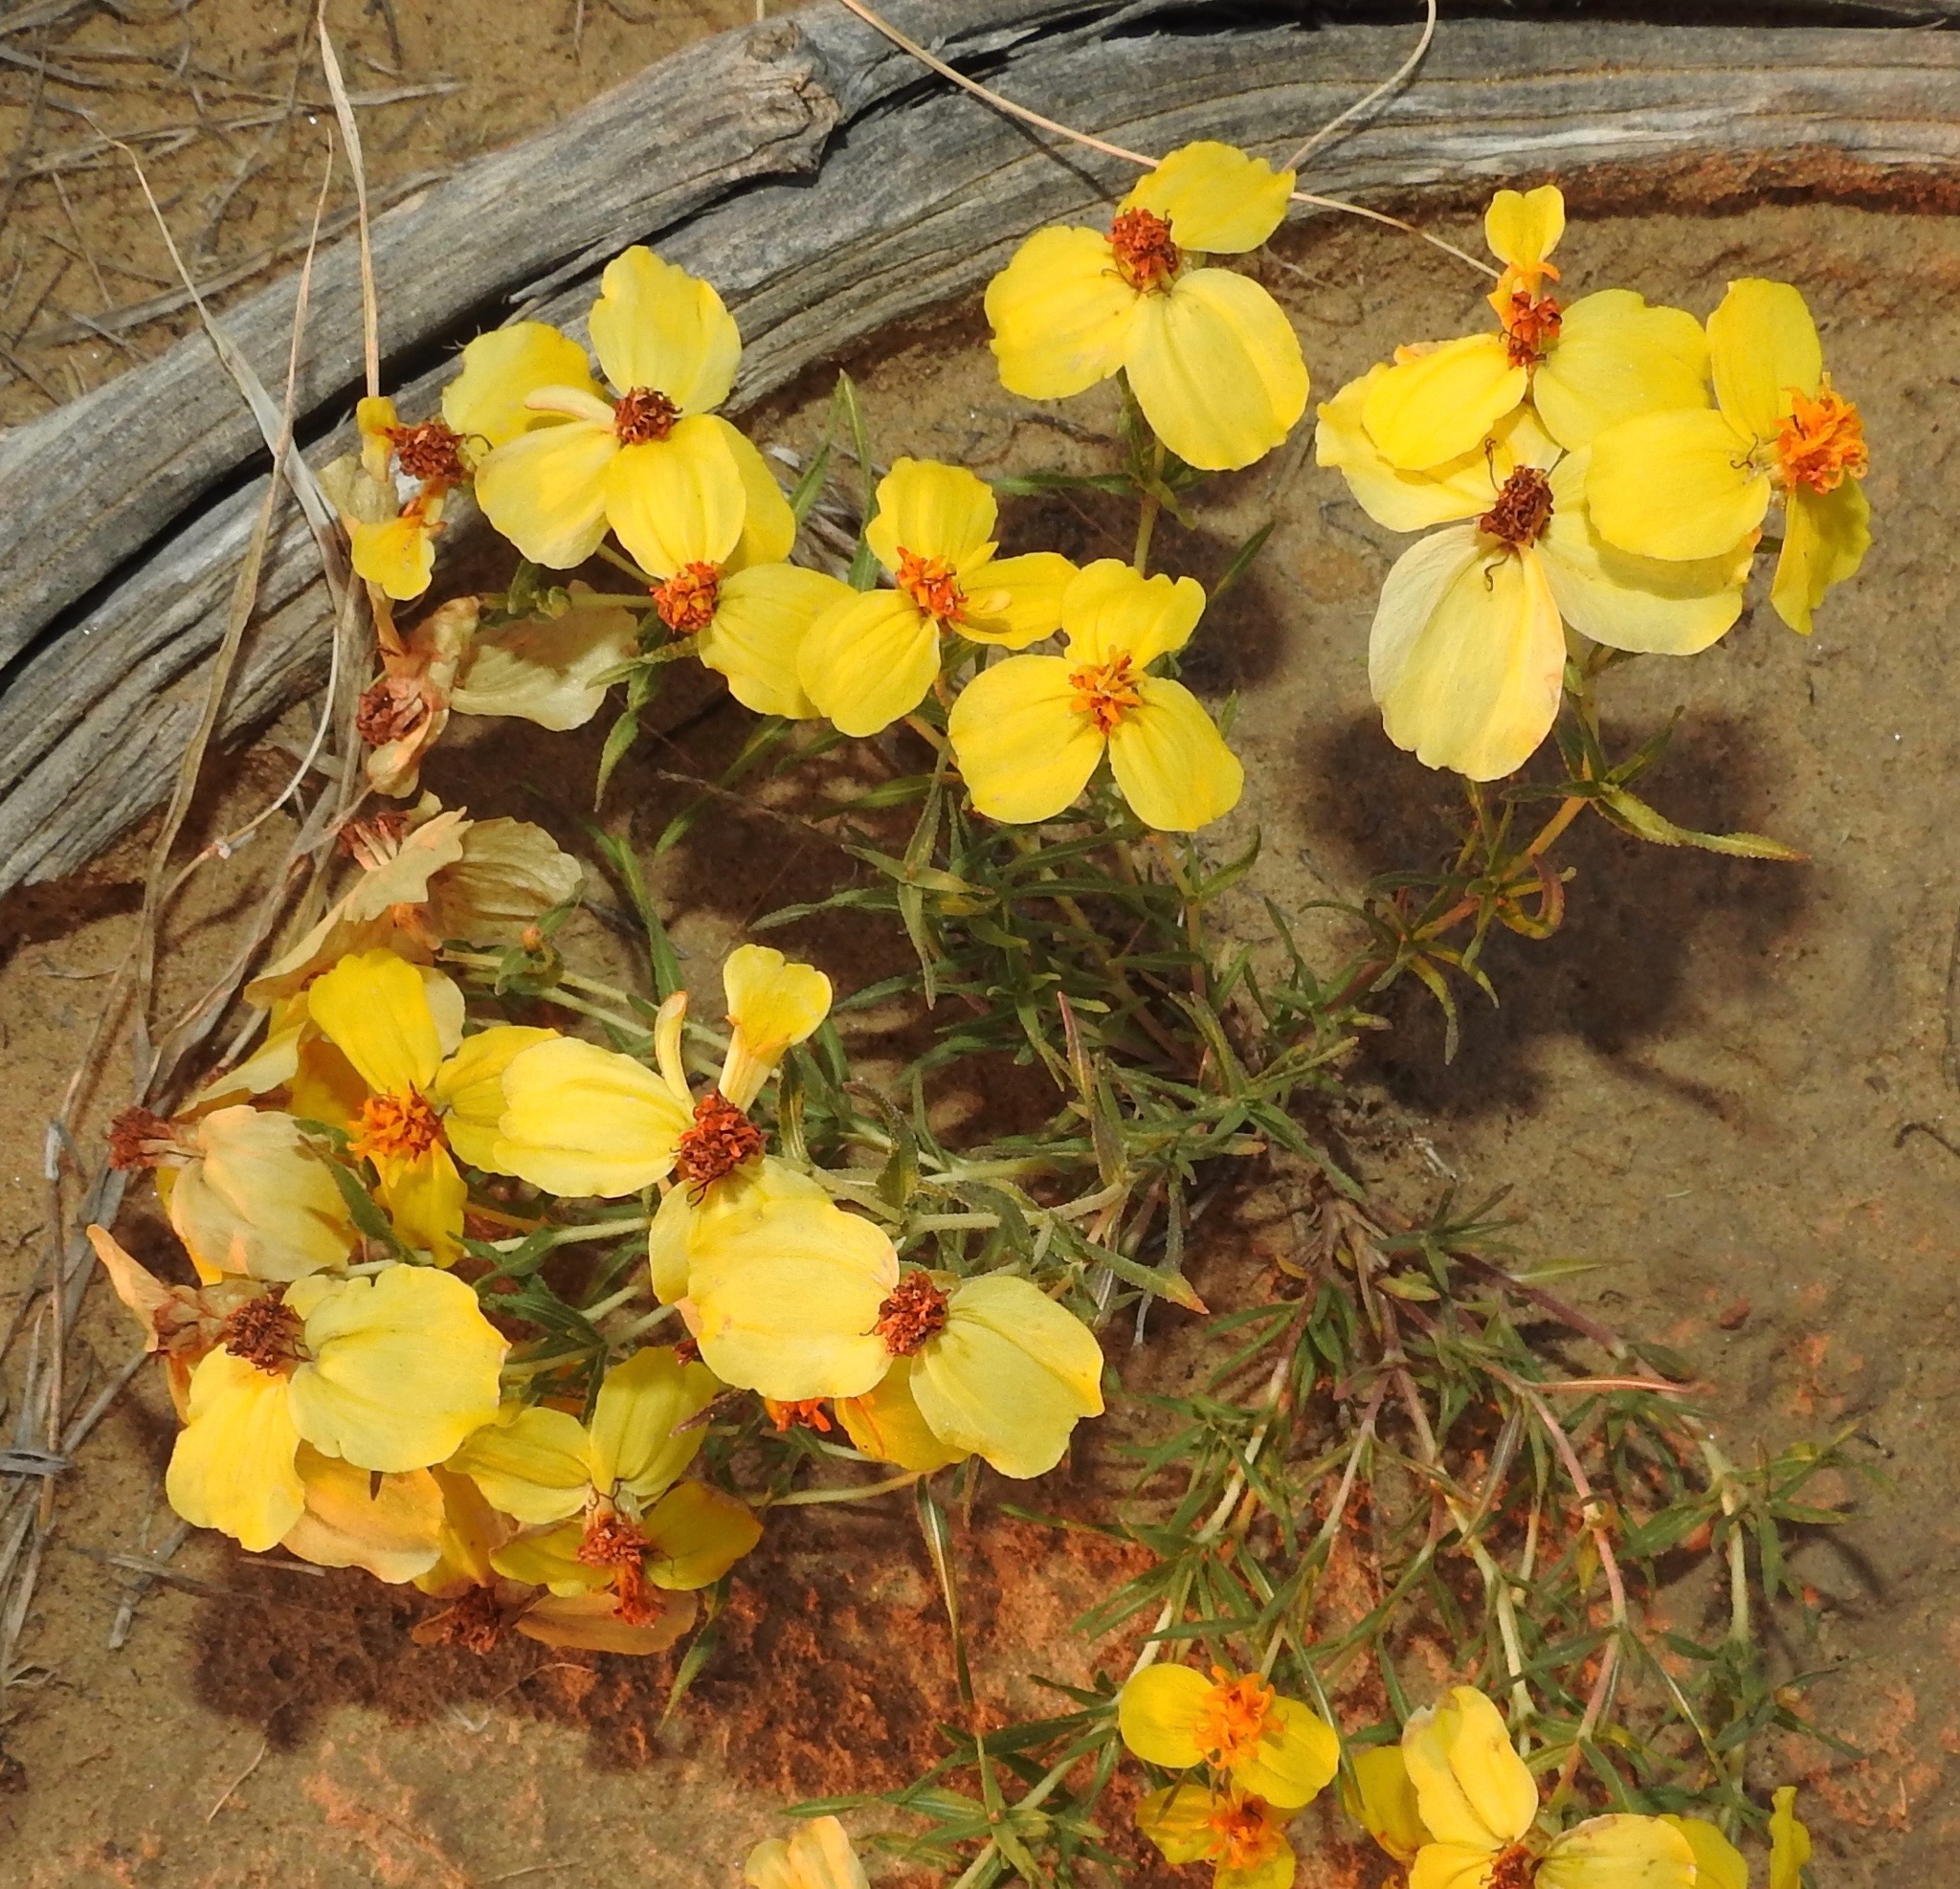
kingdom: Plantae
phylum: Tracheophyta
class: Magnoliopsida
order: Asterales
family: Asteraceae
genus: Zinnia
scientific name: Zinnia grandiflora
